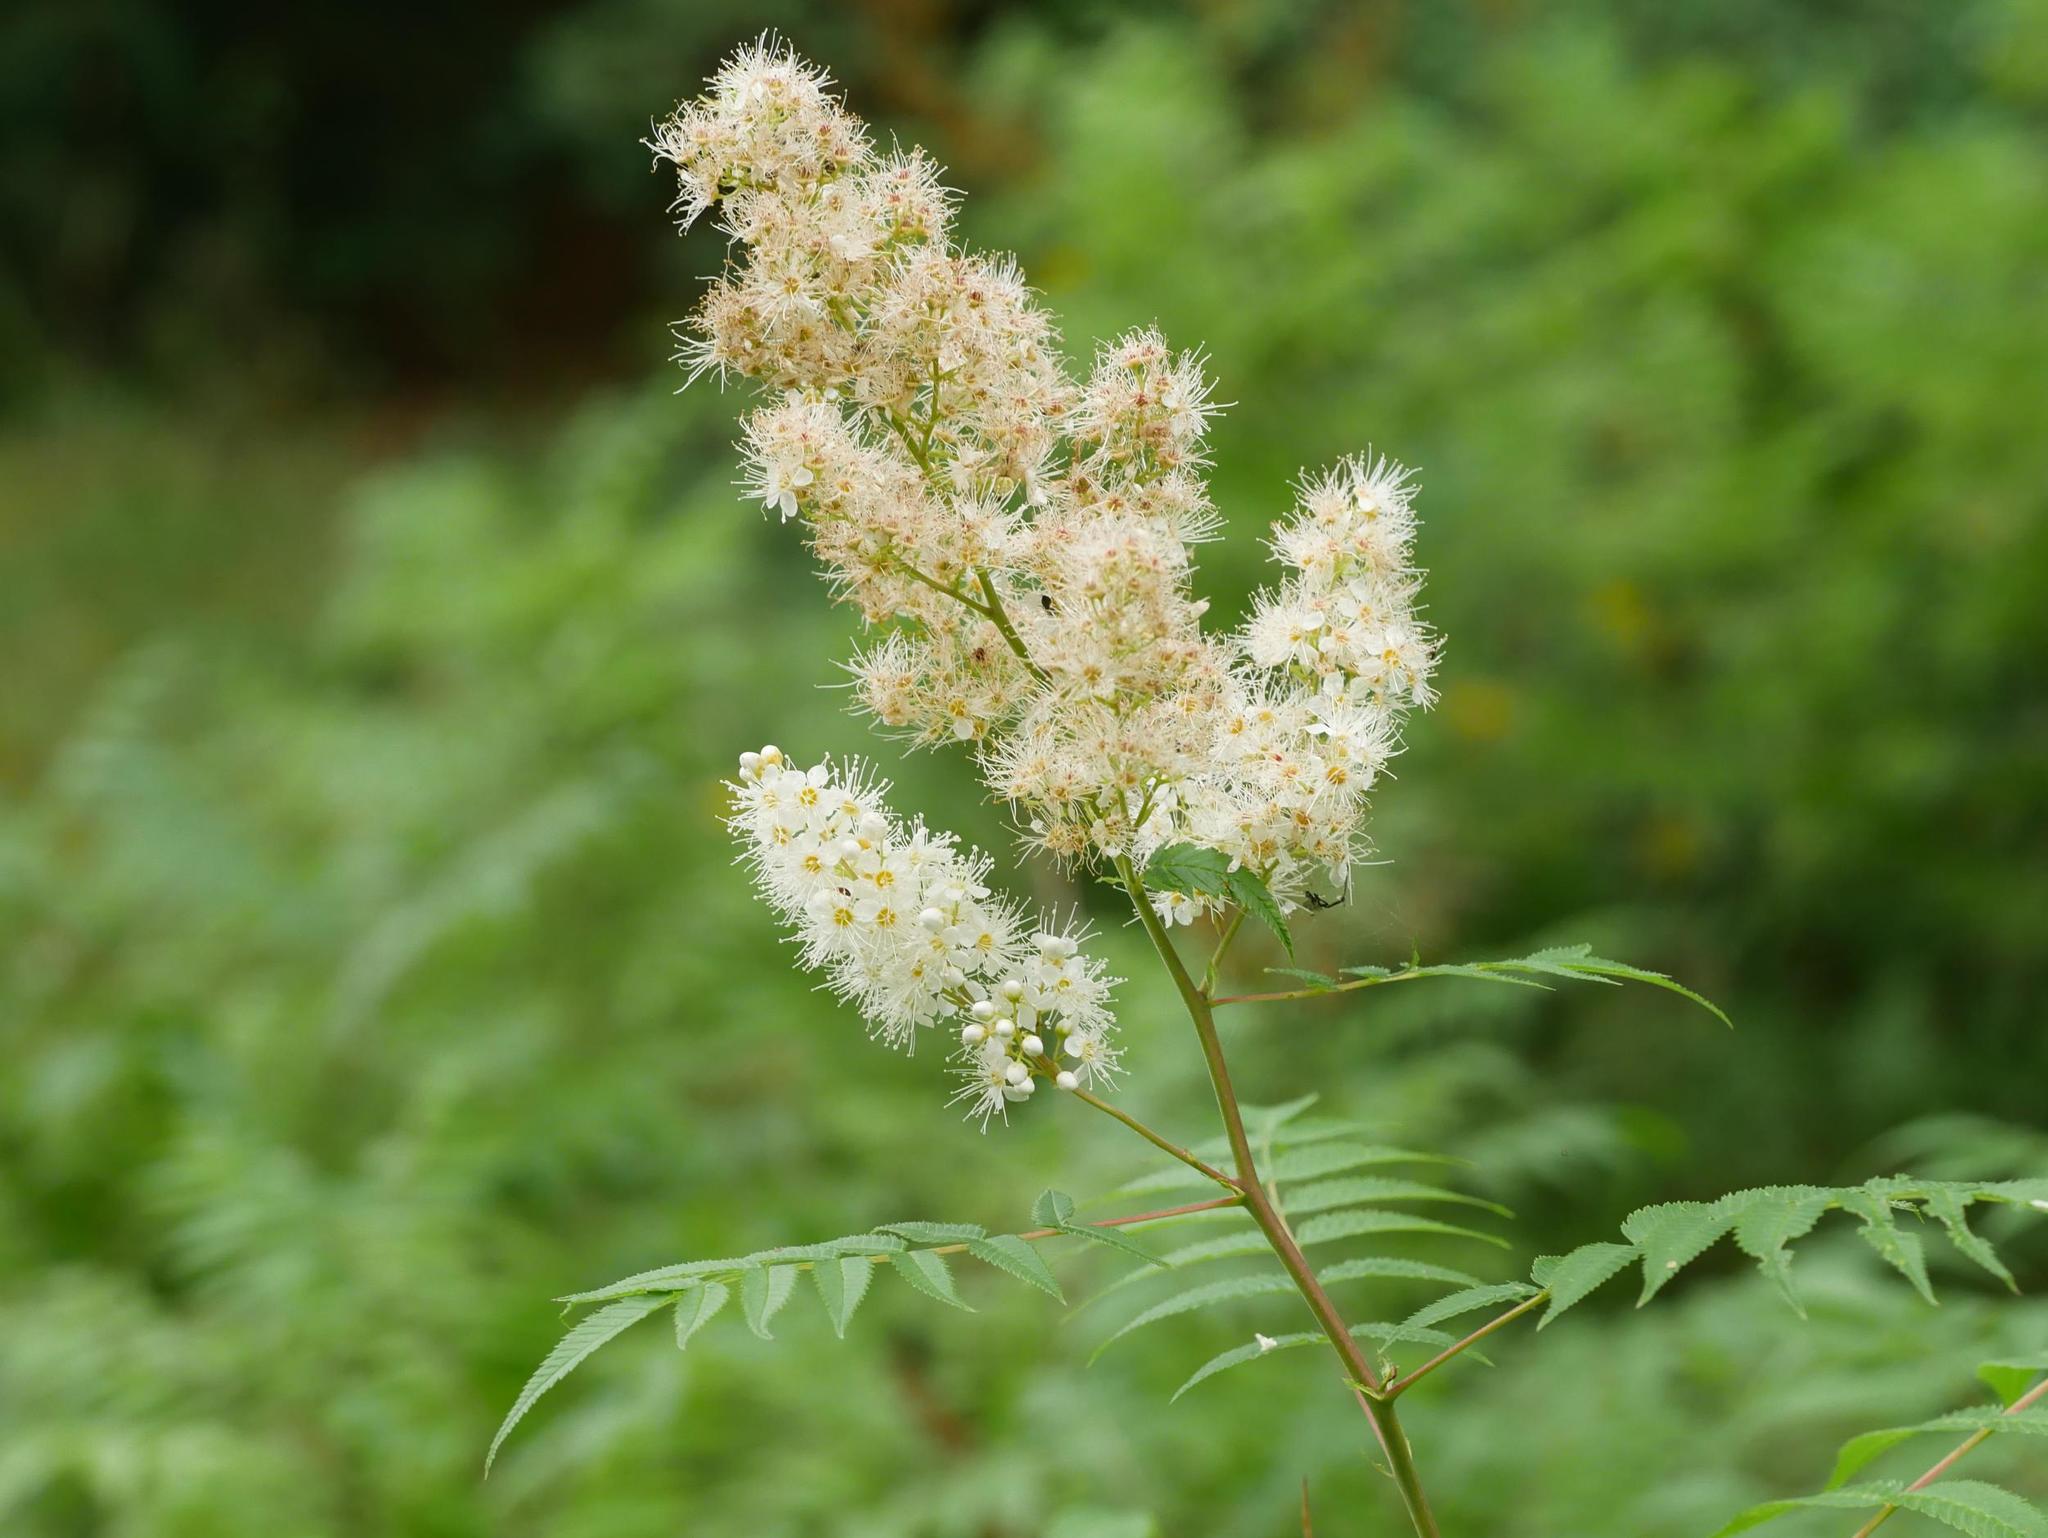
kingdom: Plantae
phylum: Tracheophyta
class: Magnoliopsida
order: Rosales
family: Rosaceae
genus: Sorbaria
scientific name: Sorbaria sorbifolia
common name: False spiraea
